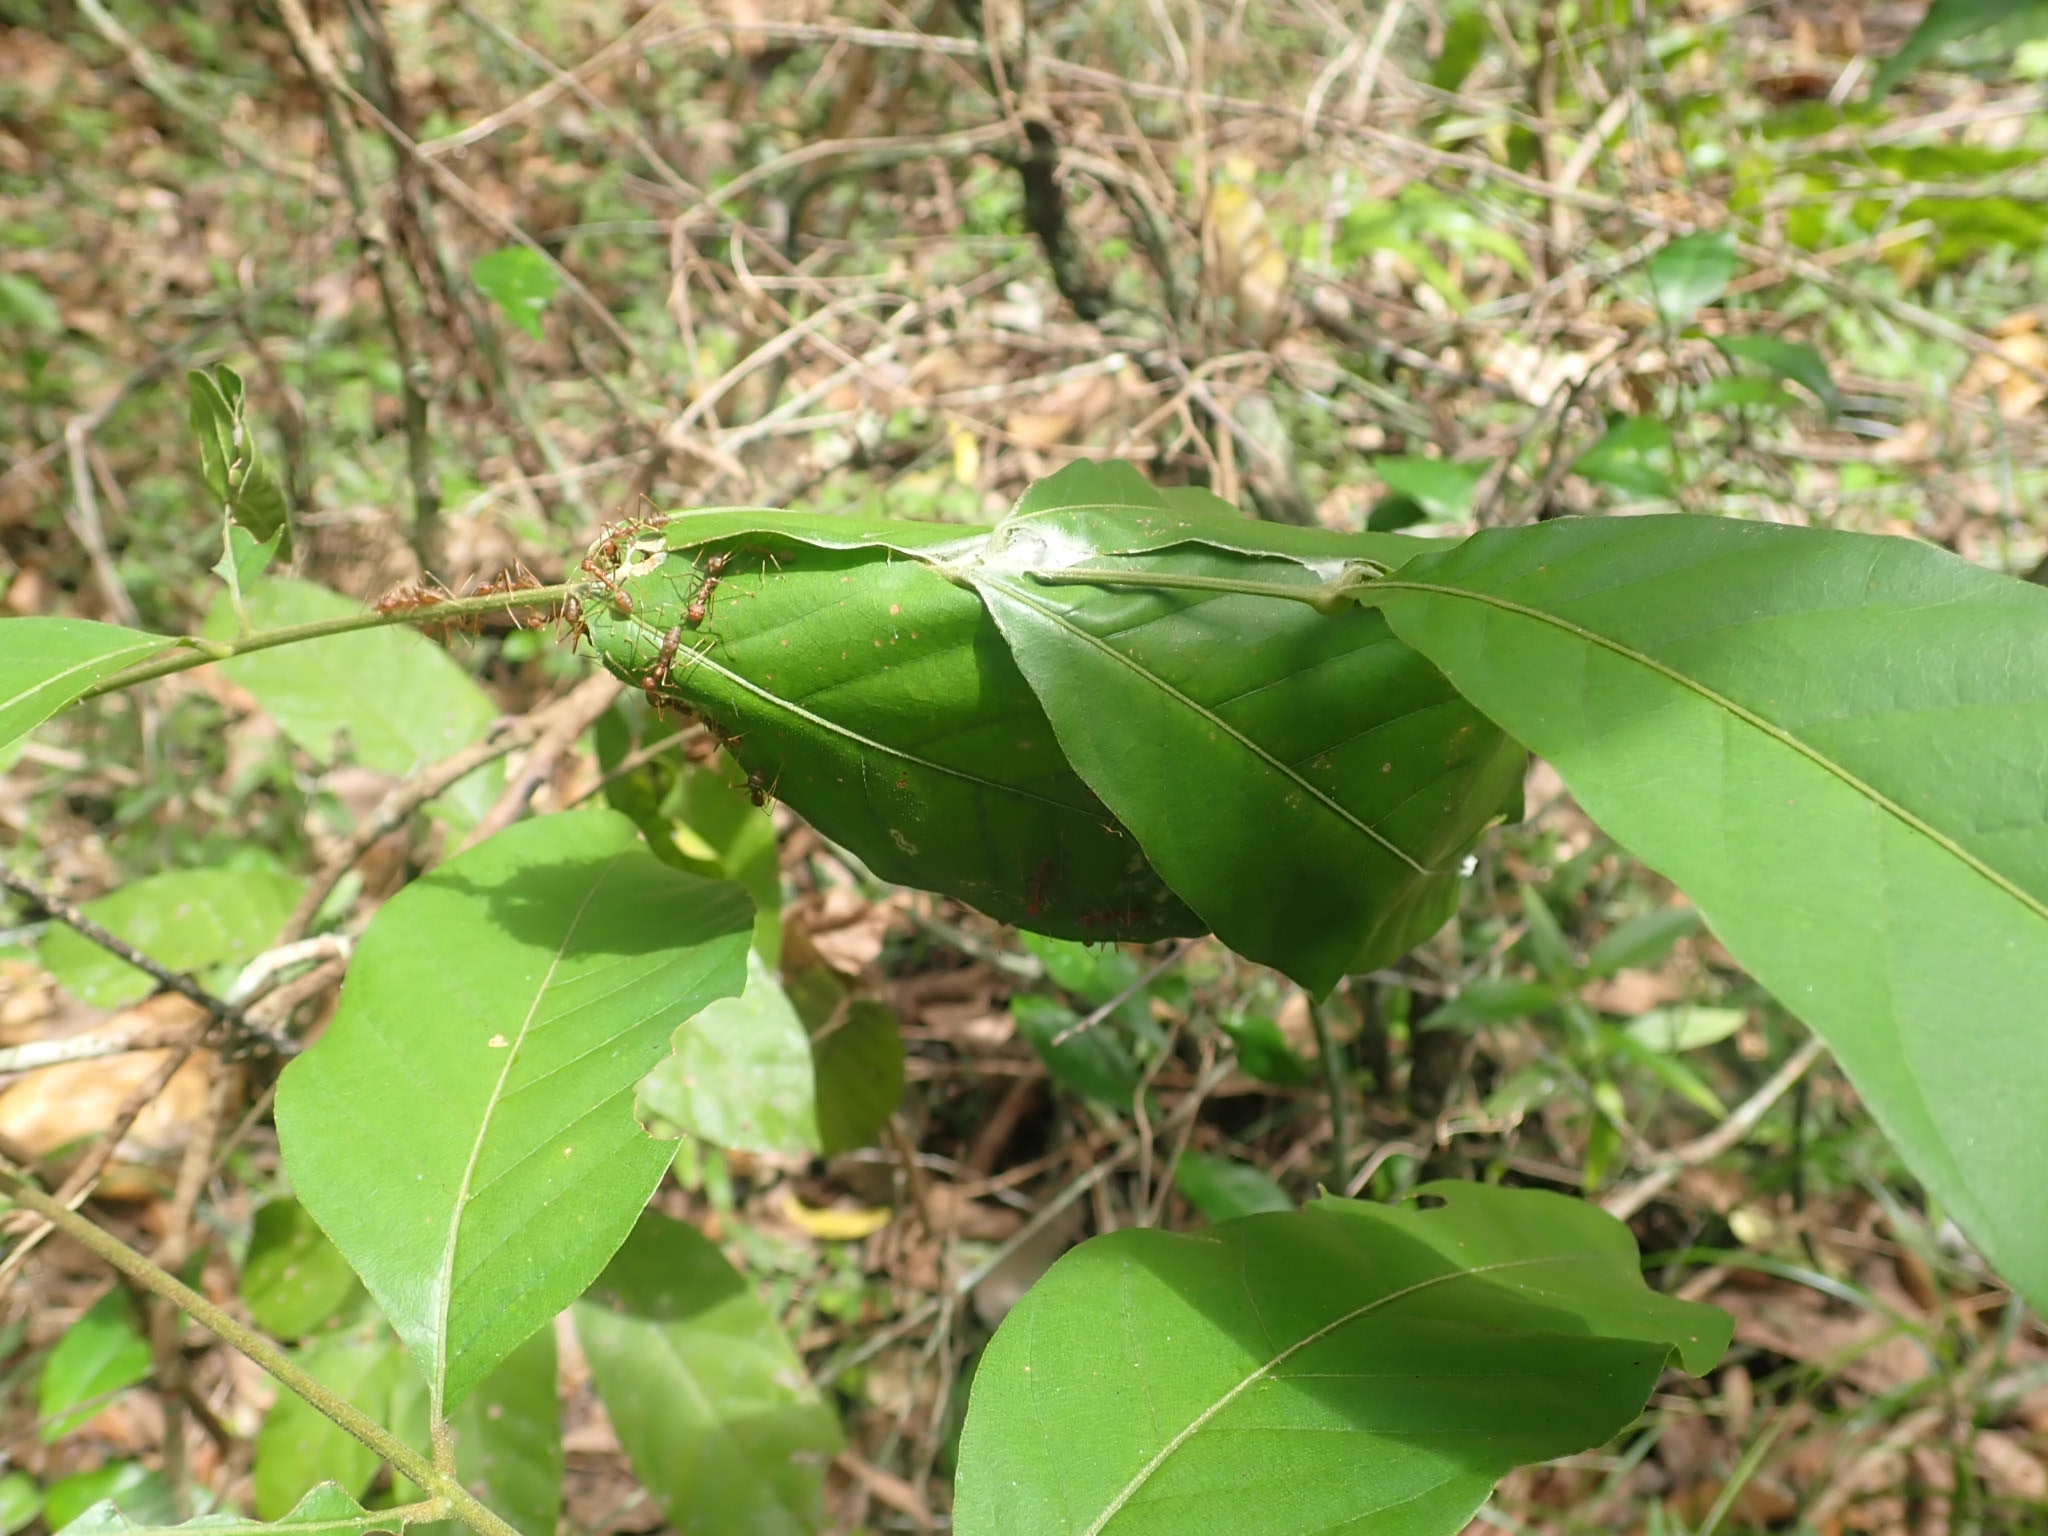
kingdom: Animalia
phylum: Arthropoda
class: Insecta
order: Hymenoptera
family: Formicidae
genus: Oecophylla
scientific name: Oecophylla smaragdina
